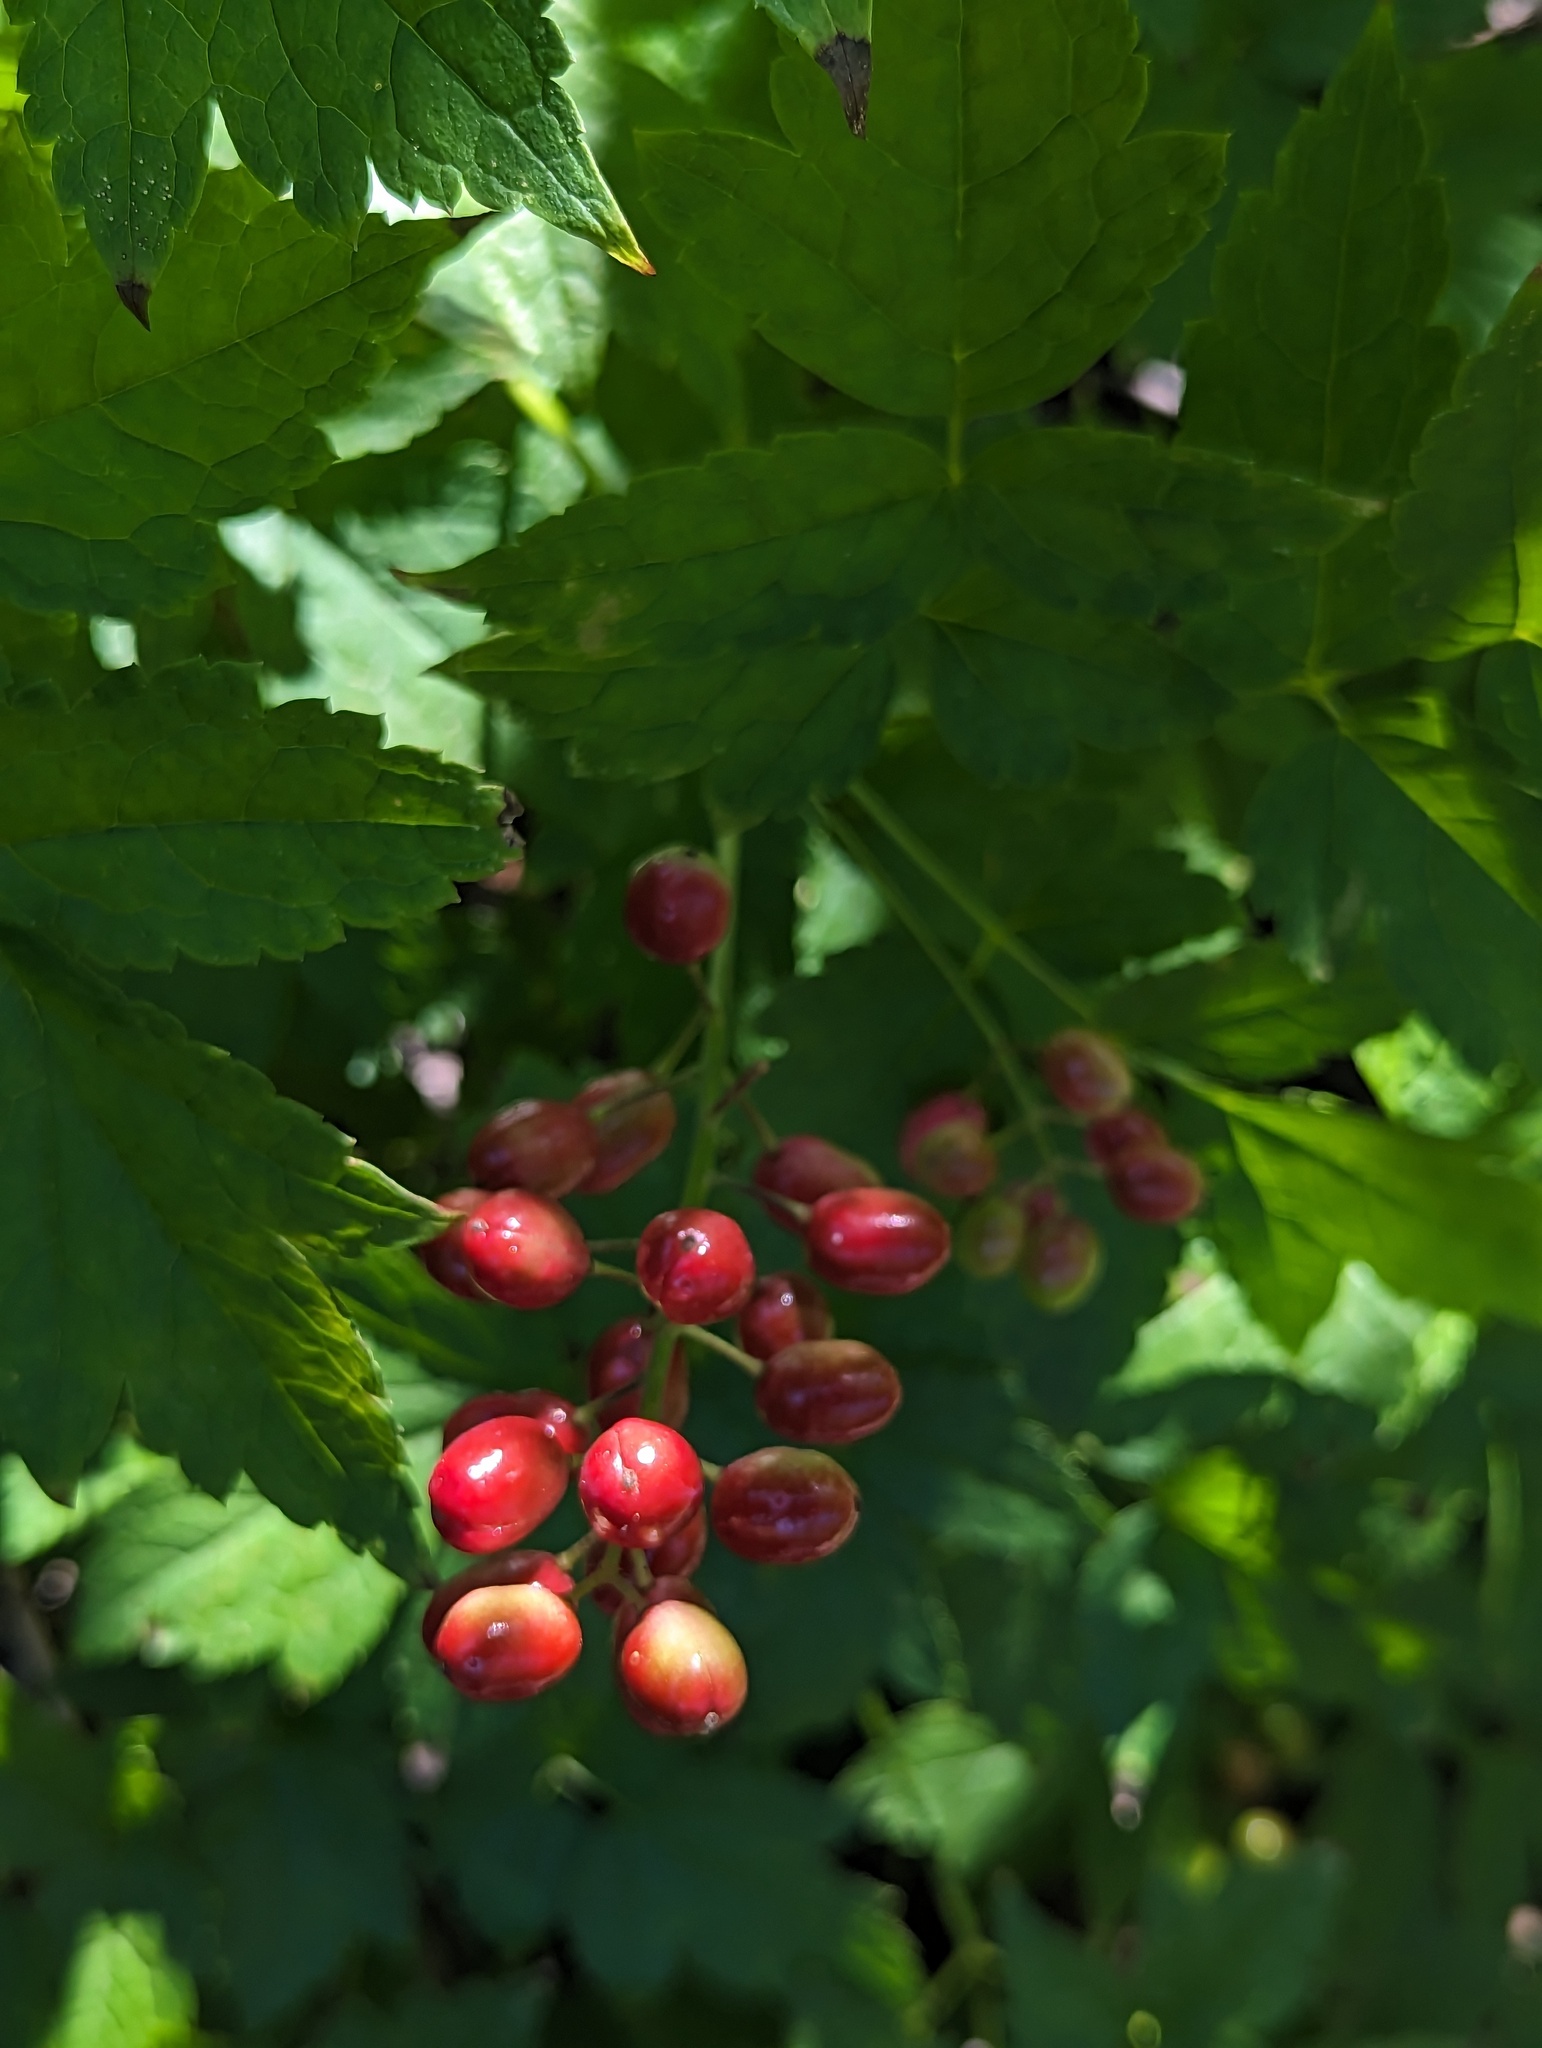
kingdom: Plantae
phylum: Tracheophyta
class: Magnoliopsida
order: Ranunculales
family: Ranunculaceae
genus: Actaea
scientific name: Actaea rubra
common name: Red baneberry
